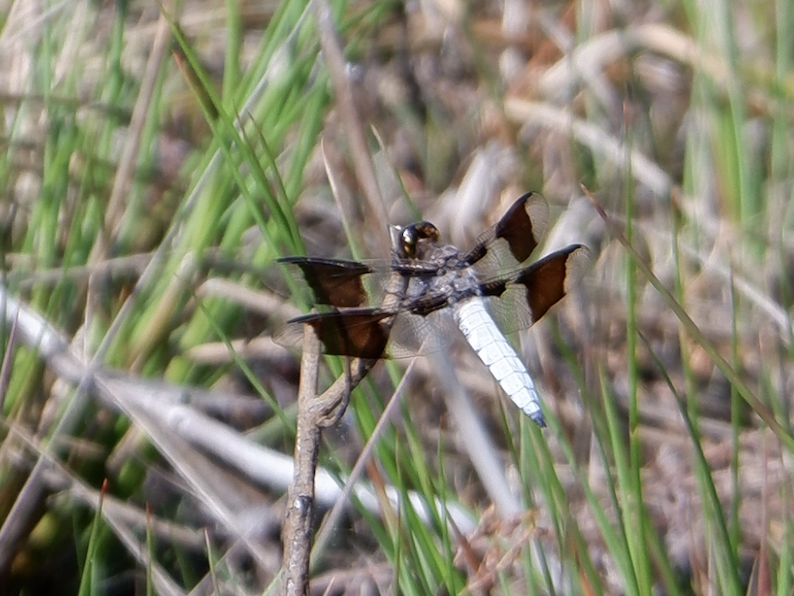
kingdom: Animalia
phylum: Arthropoda
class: Insecta
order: Odonata
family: Libellulidae
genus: Plathemis
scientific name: Plathemis lydia
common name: Common whitetail
